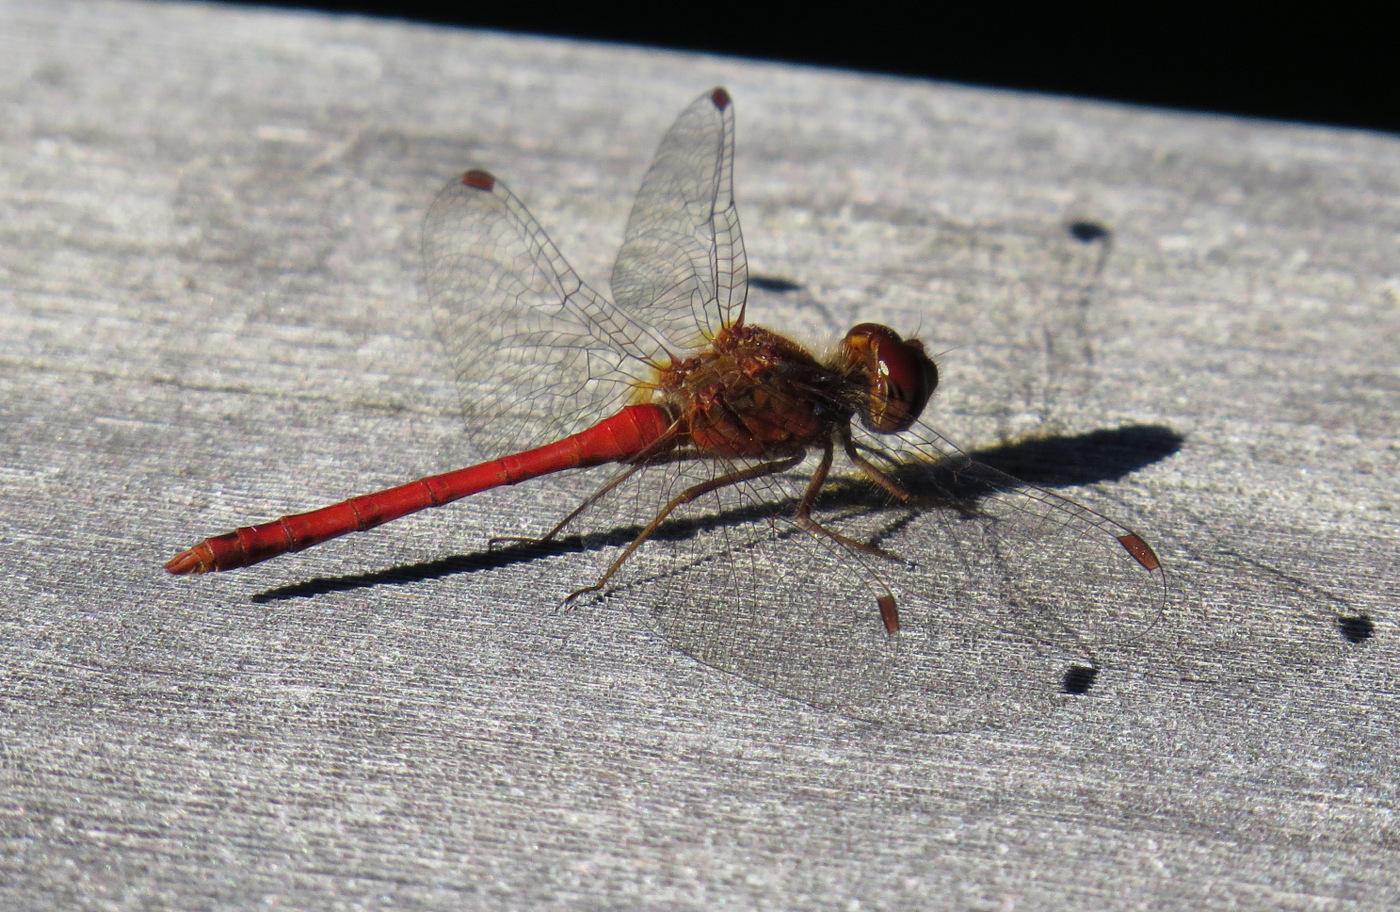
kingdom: Animalia
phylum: Arthropoda
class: Insecta
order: Odonata
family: Libellulidae
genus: Sympetrum
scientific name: Sympetrum vicinum
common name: Autumn meadowhawk
